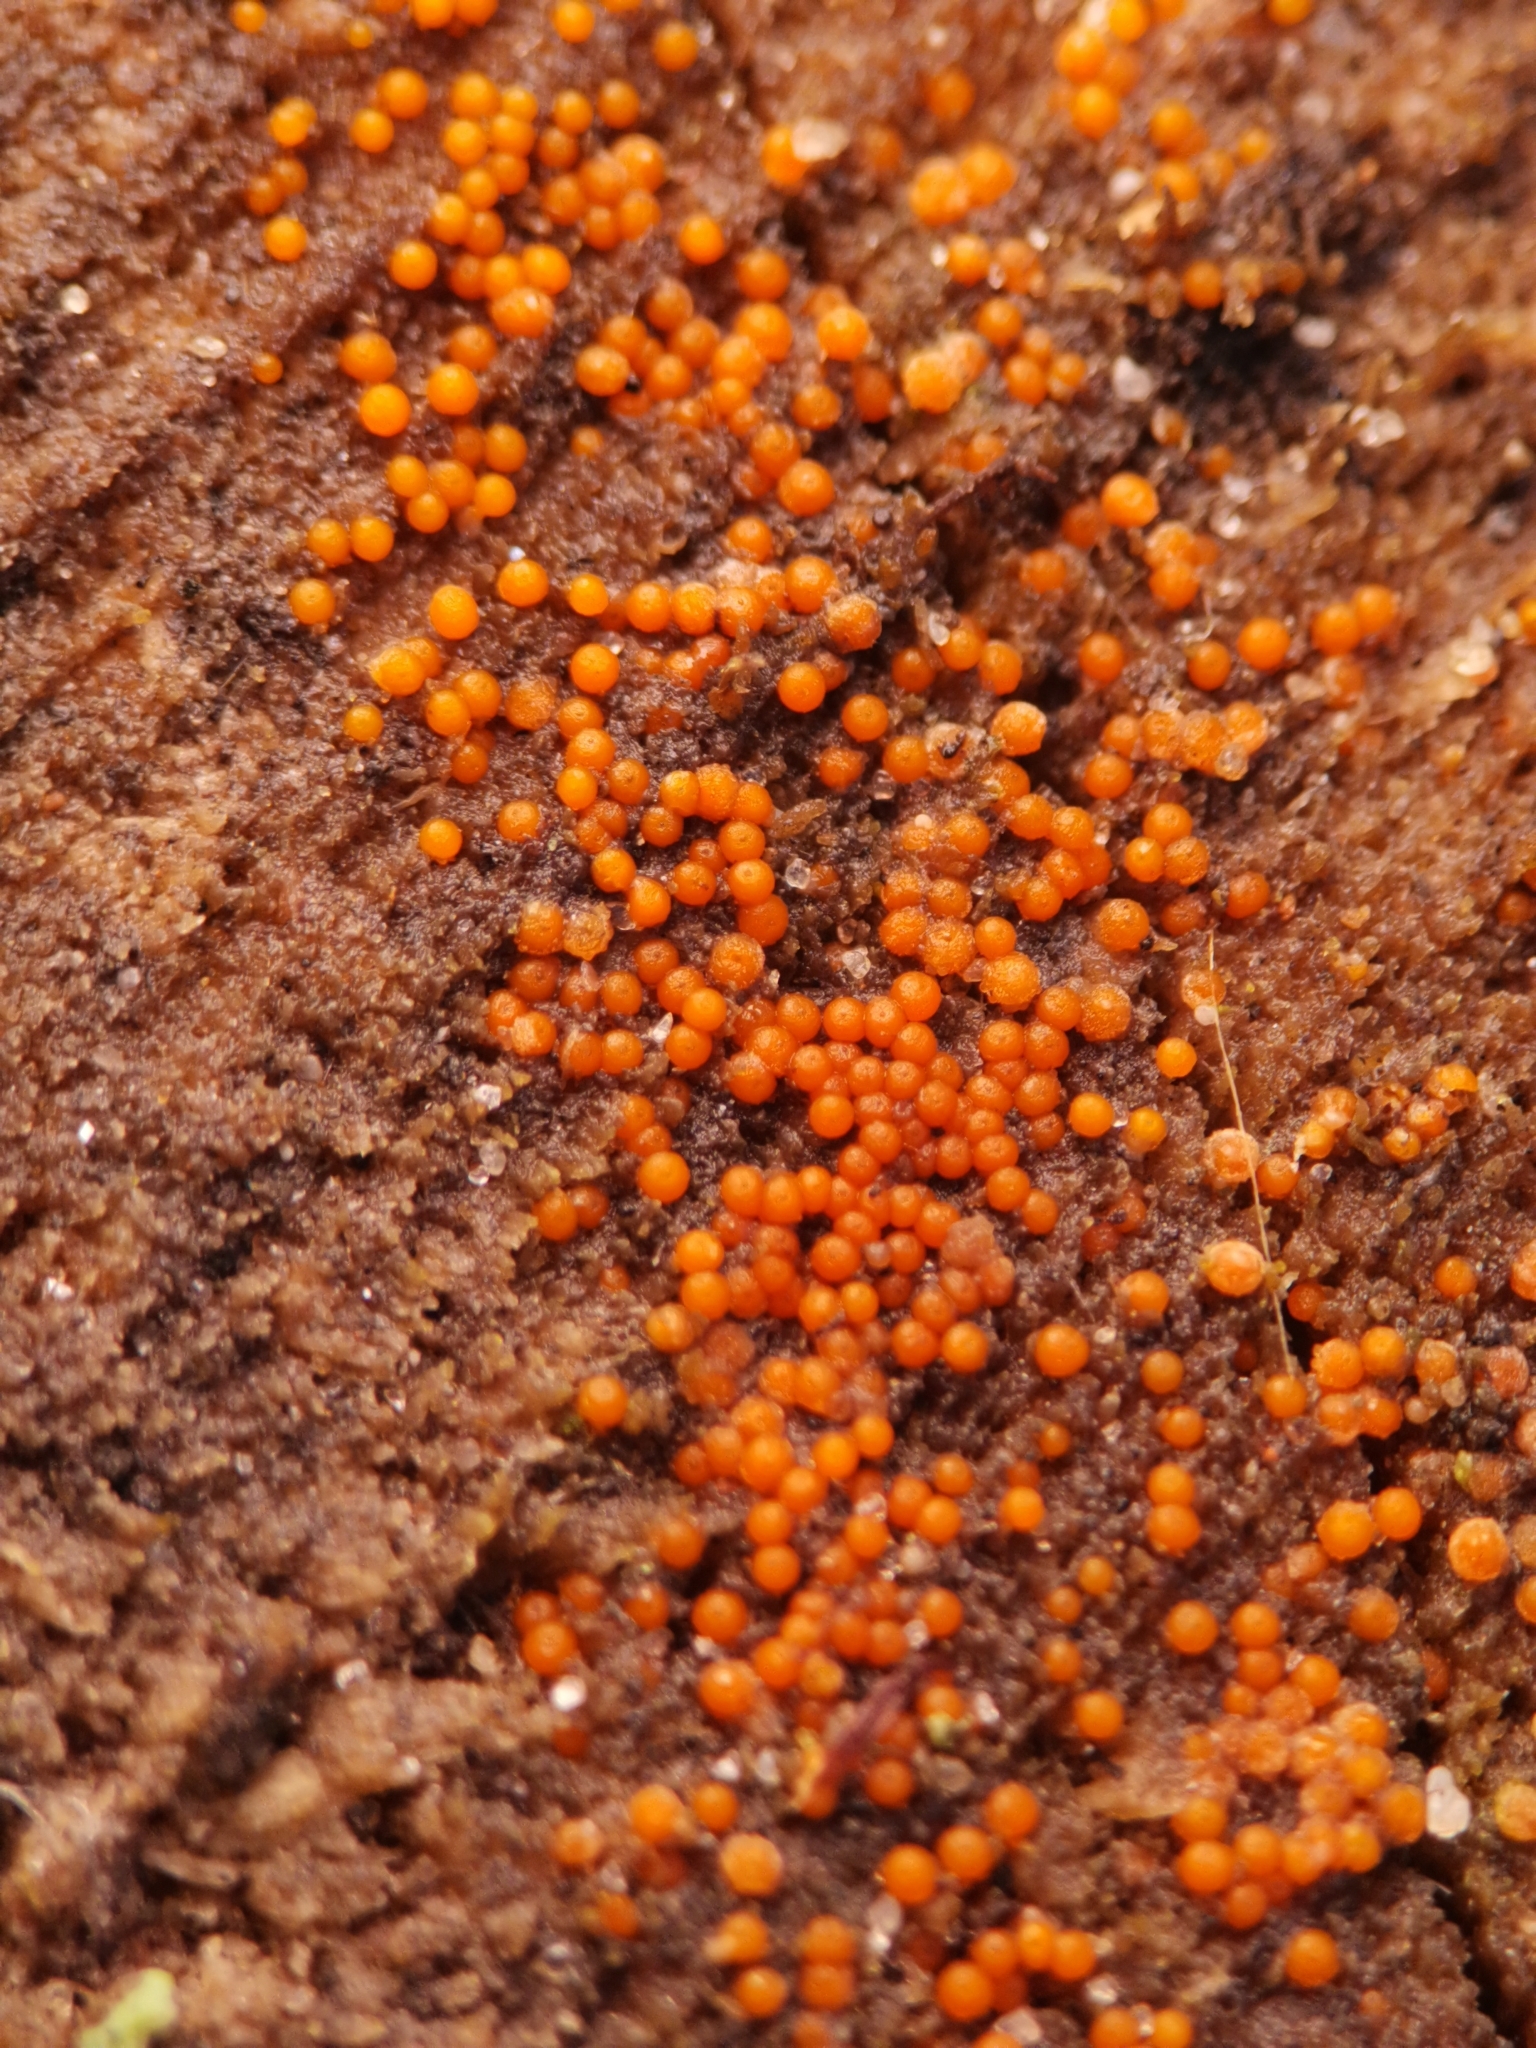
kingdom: Fungi
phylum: Ascomycota
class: Sordariomycetes
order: Hypocreales
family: Nectriaceae
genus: Hydropisphaera
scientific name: Hydropisphaera peziza
